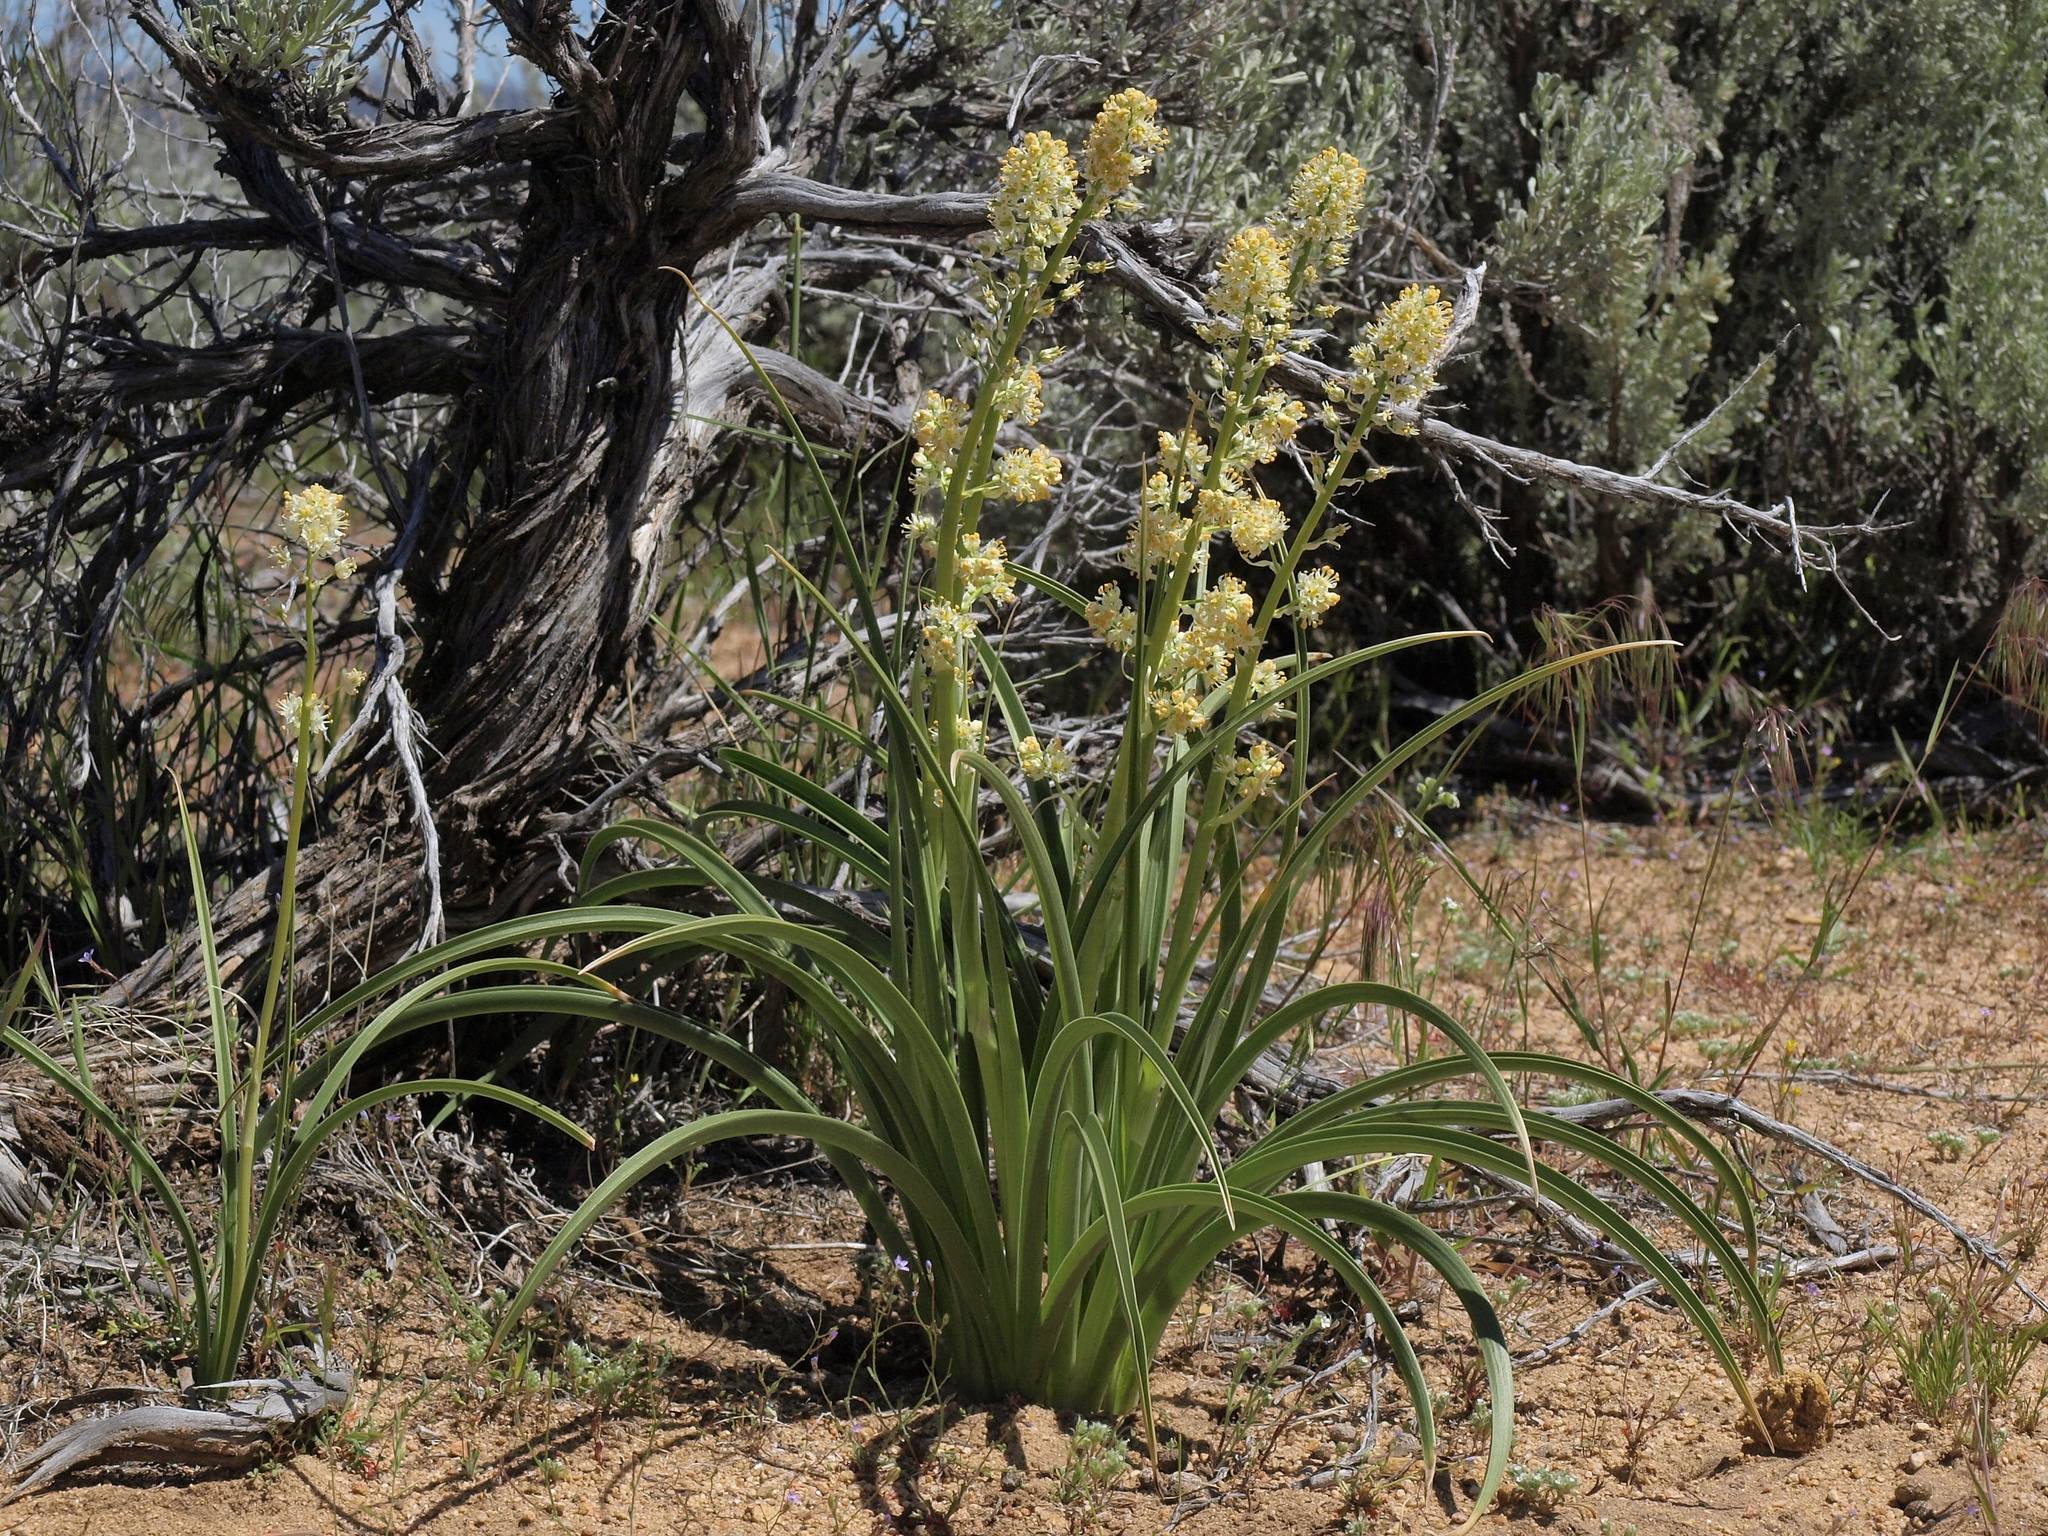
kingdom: Plantae
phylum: Tracheophyta
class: Liliopsida
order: Liliales
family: Melanthiaceae
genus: Toxicoscordion
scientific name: Toxicoscordion paniculatum
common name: Foothill death camas
